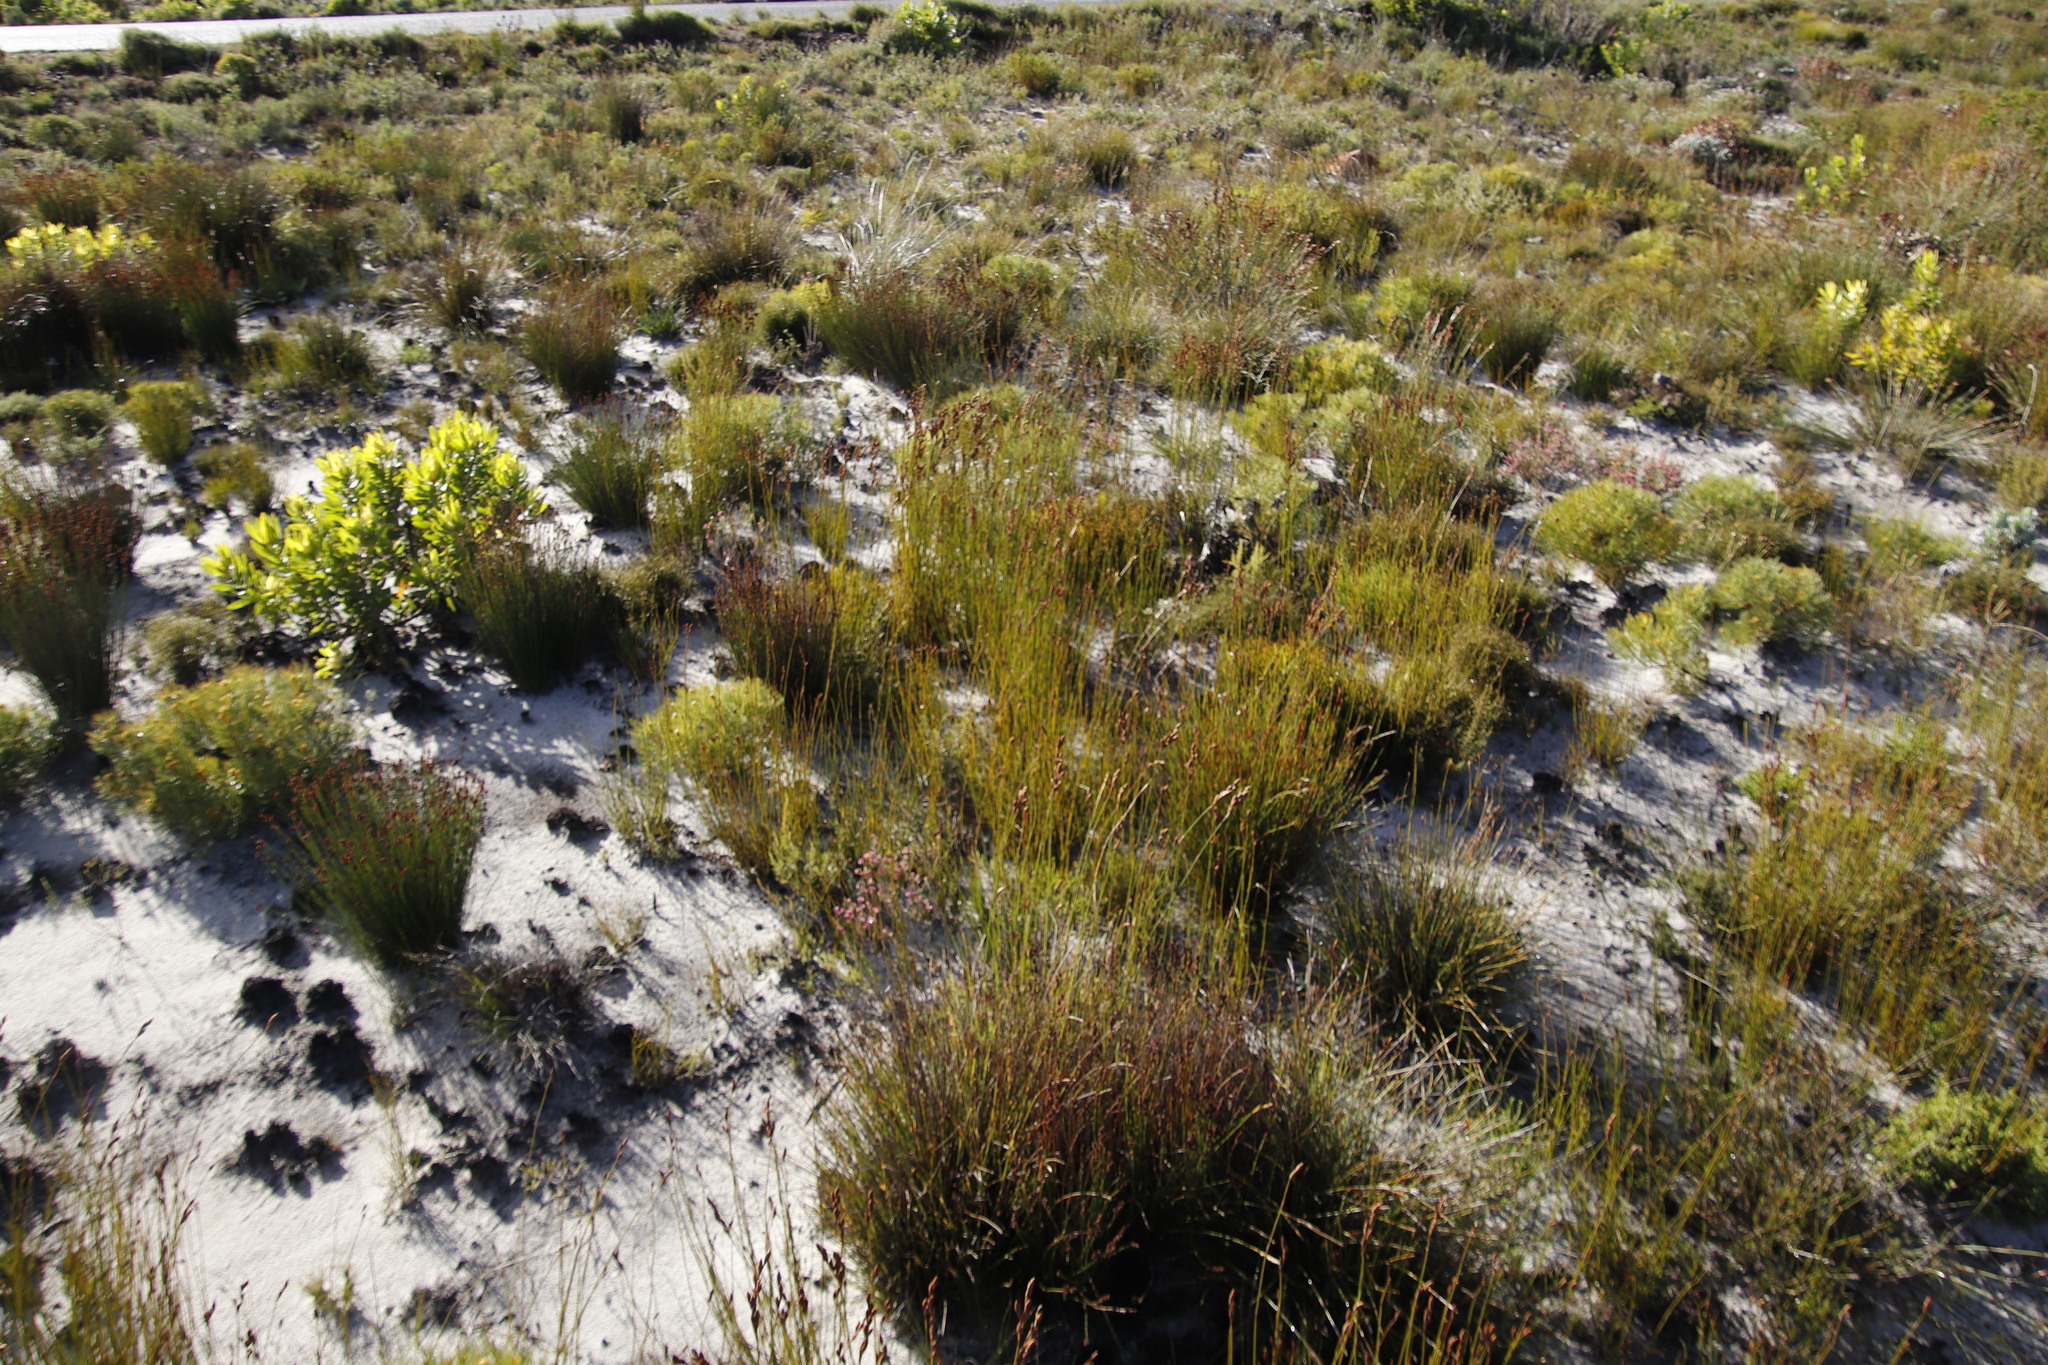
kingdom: Plantae
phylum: Tracheophyta
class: Liliopsida
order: Poales
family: Restionaceae
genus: Elegia
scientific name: Elegia nuda
